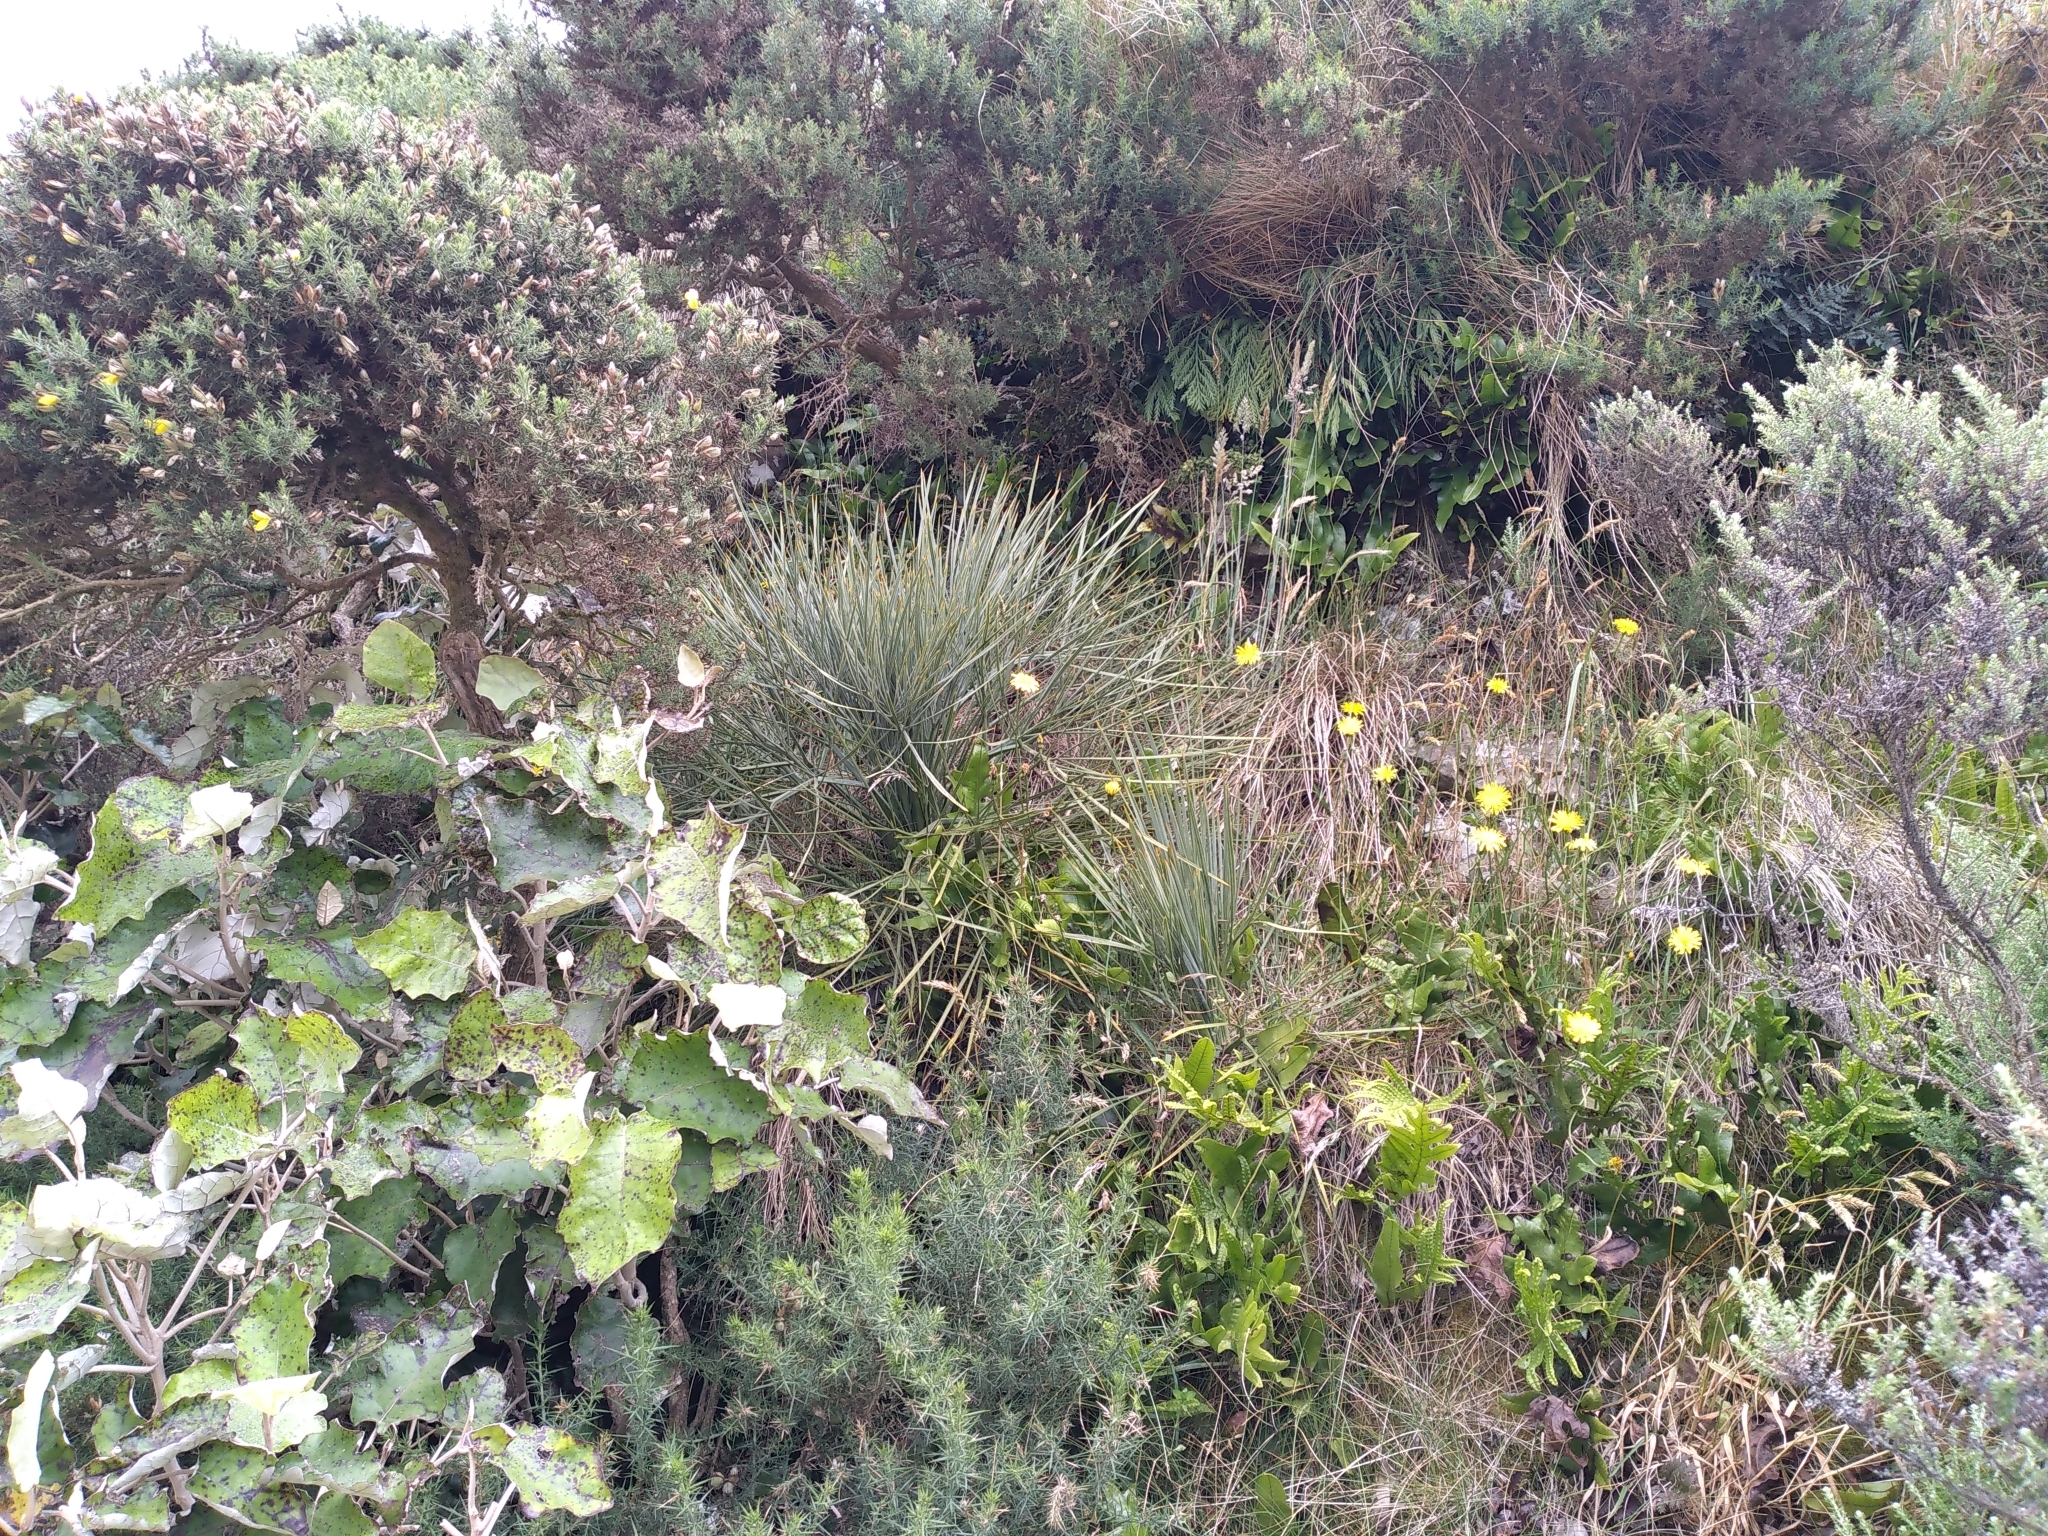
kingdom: Plantae
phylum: Tracheophyta
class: Magnoliopsida
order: Apiales
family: Apiaceae
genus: Aciphylla
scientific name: Aciphylla squarrosa
